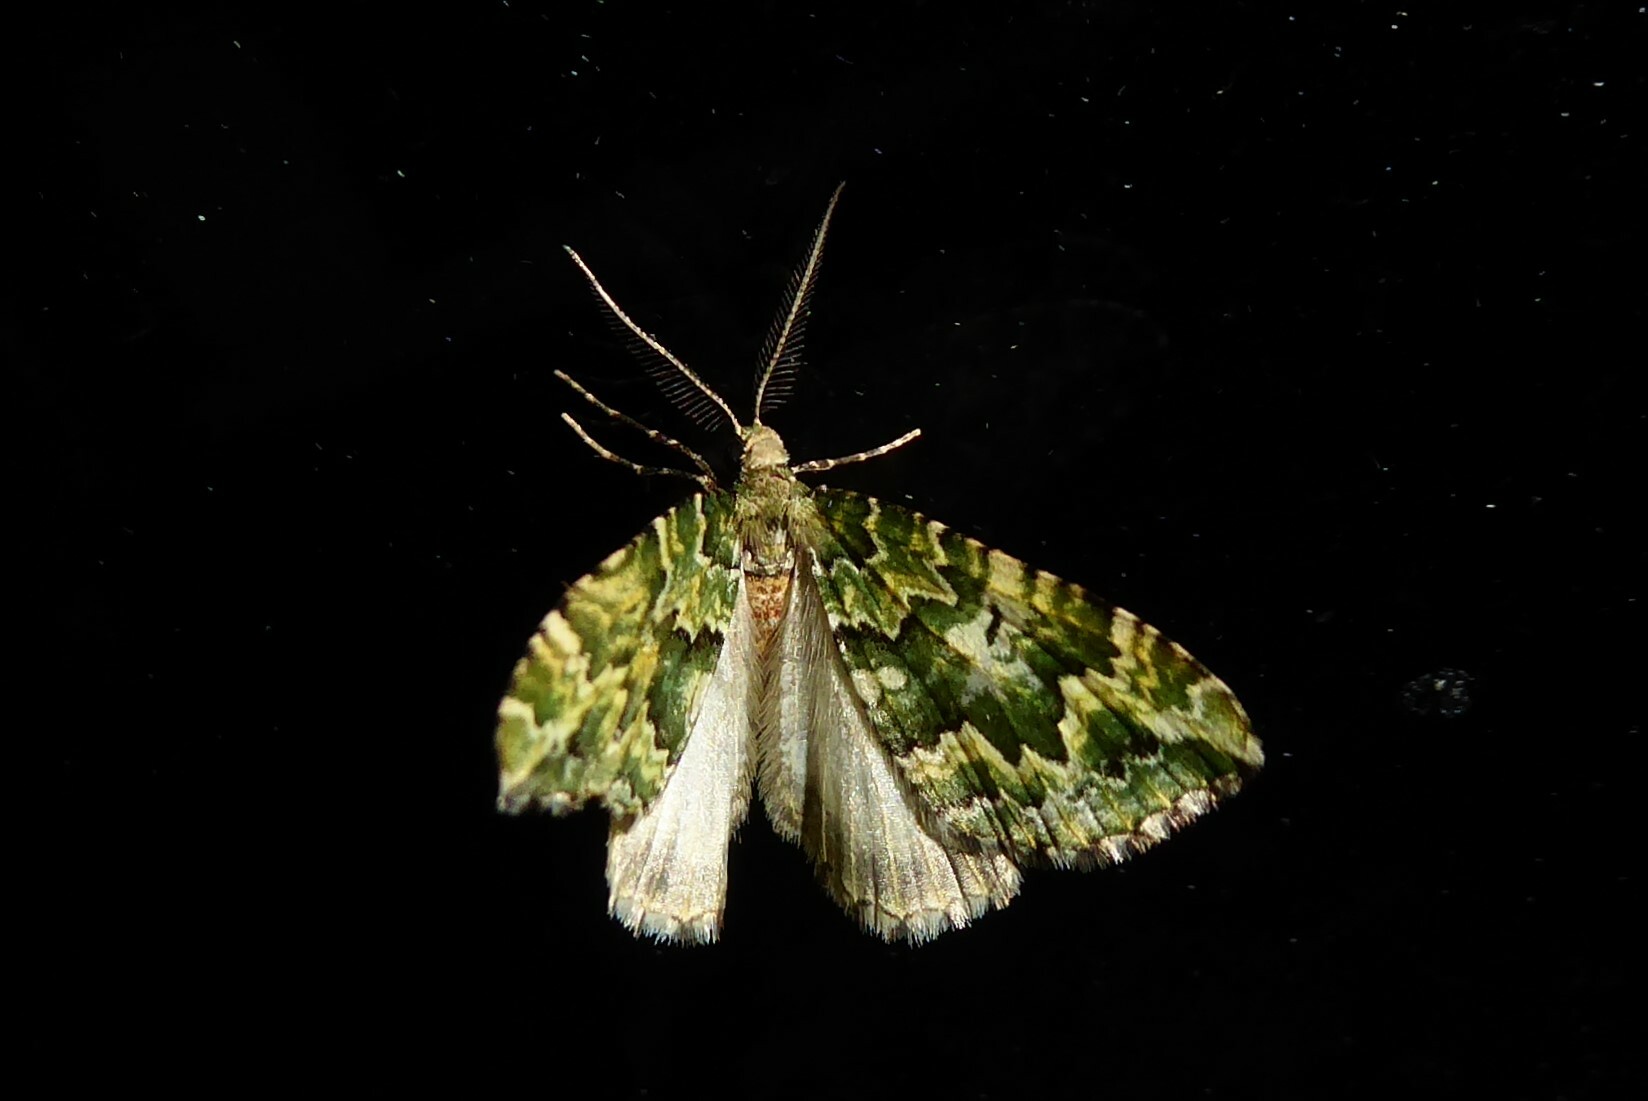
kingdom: Animalia
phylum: Arthropoda
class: Insecta
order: Lepidoptera
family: Geometridae
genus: Asaphodes
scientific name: Asaphodes beata
